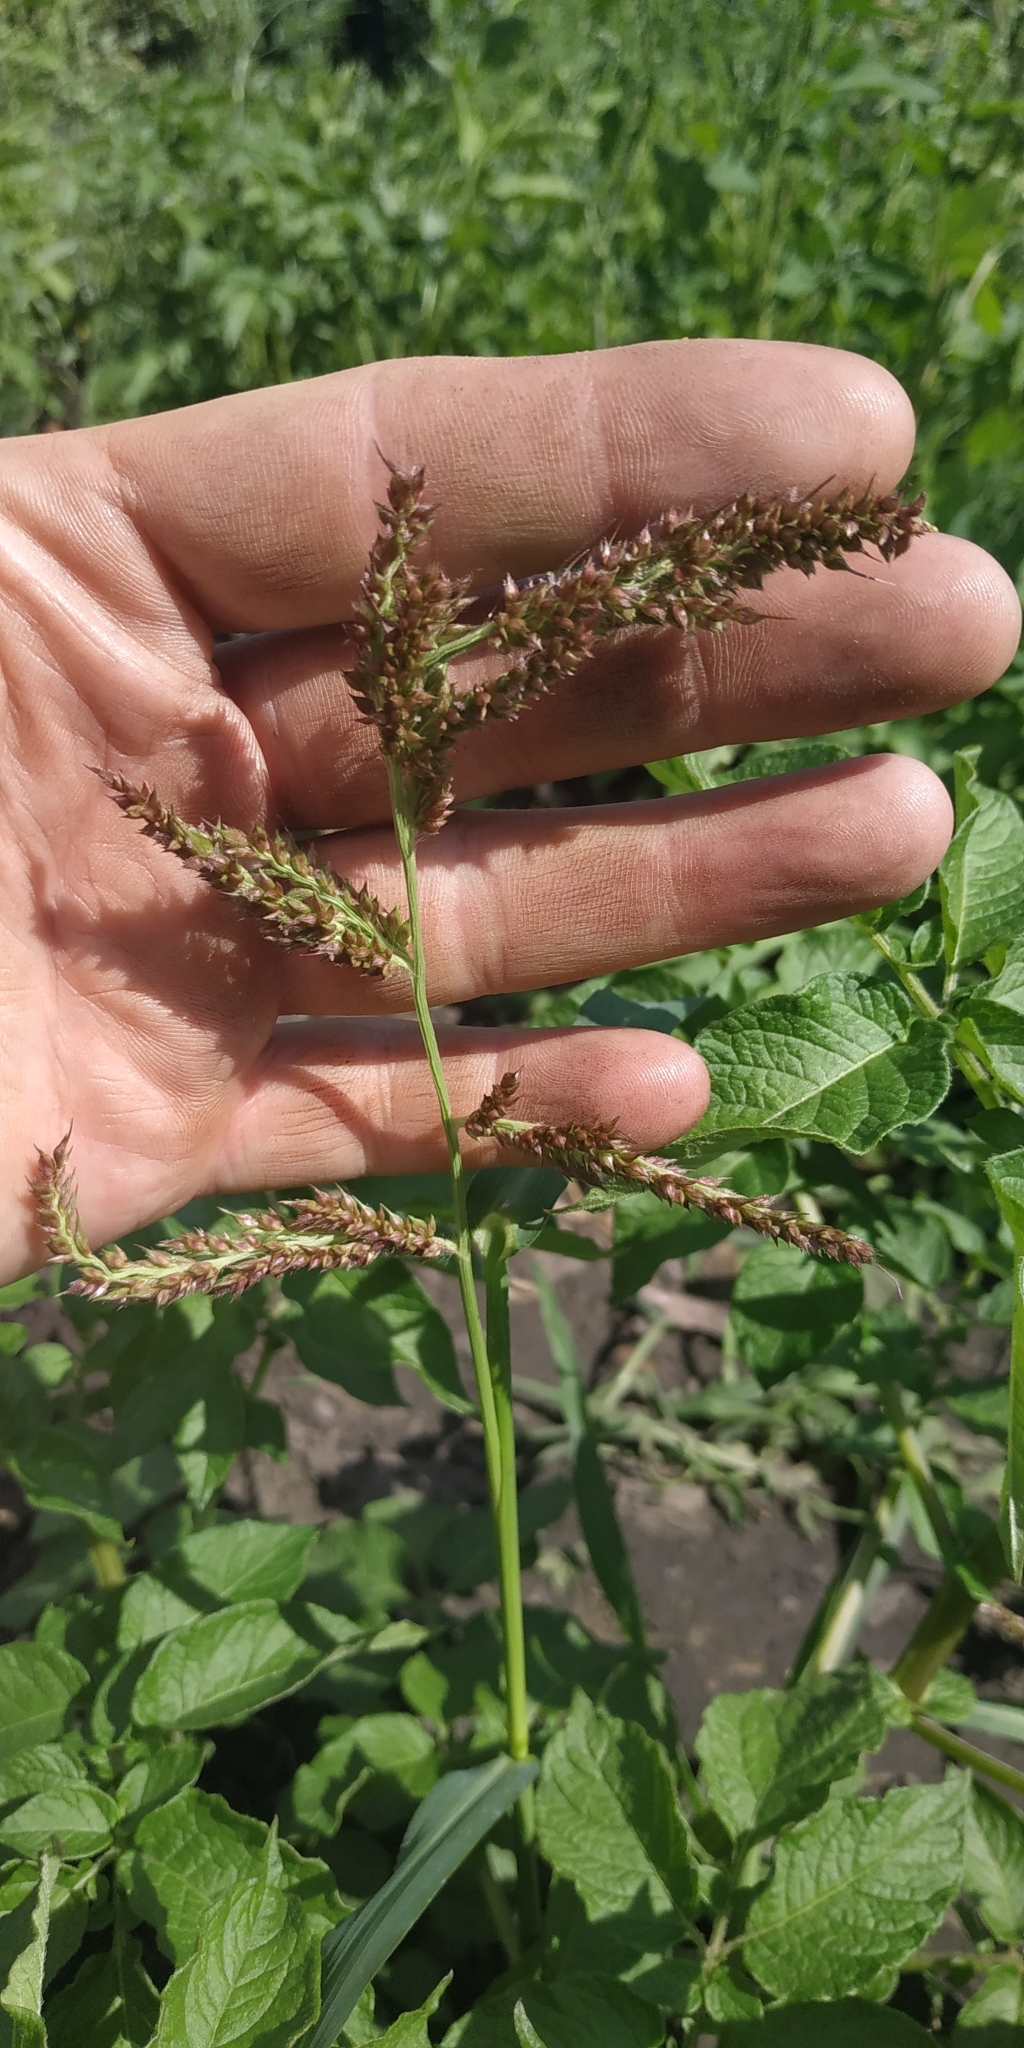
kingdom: Plantae
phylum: Tracheophyta
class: Liliopsida
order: Poales
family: Poaceae
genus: Echinochloa
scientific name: Echinochloa crus-galli
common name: Cockspur
